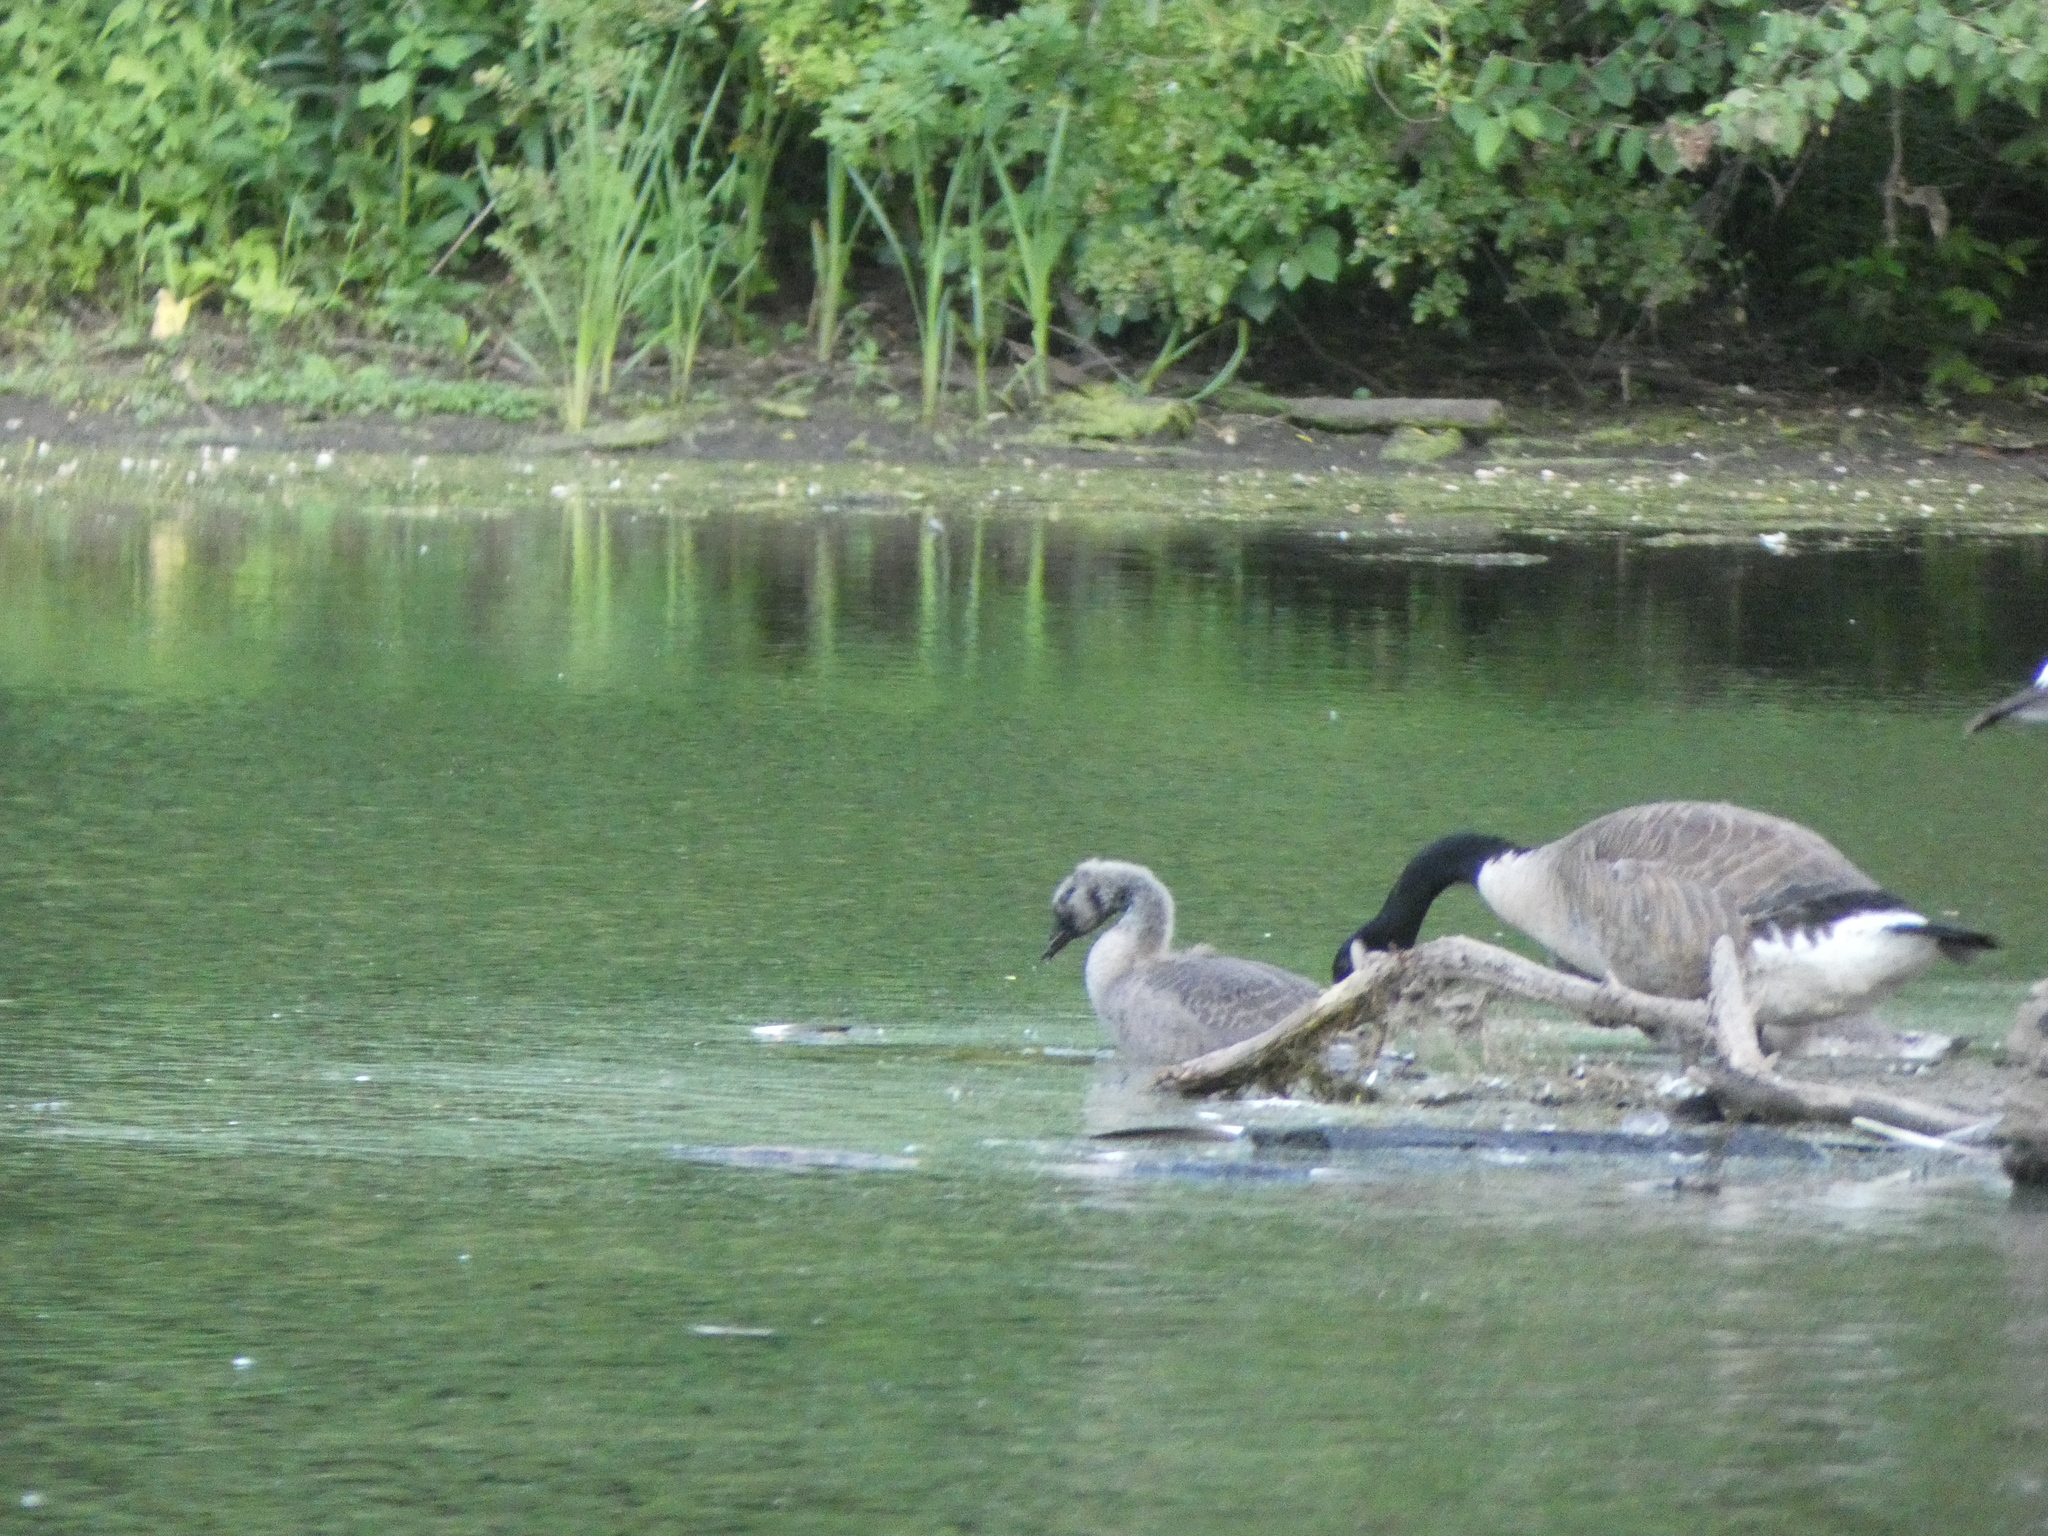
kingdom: Animalia
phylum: Chordata
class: Aves
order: Anseriformes
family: Anatidae
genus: Branta
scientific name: Branta canadensis
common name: Canada goose
